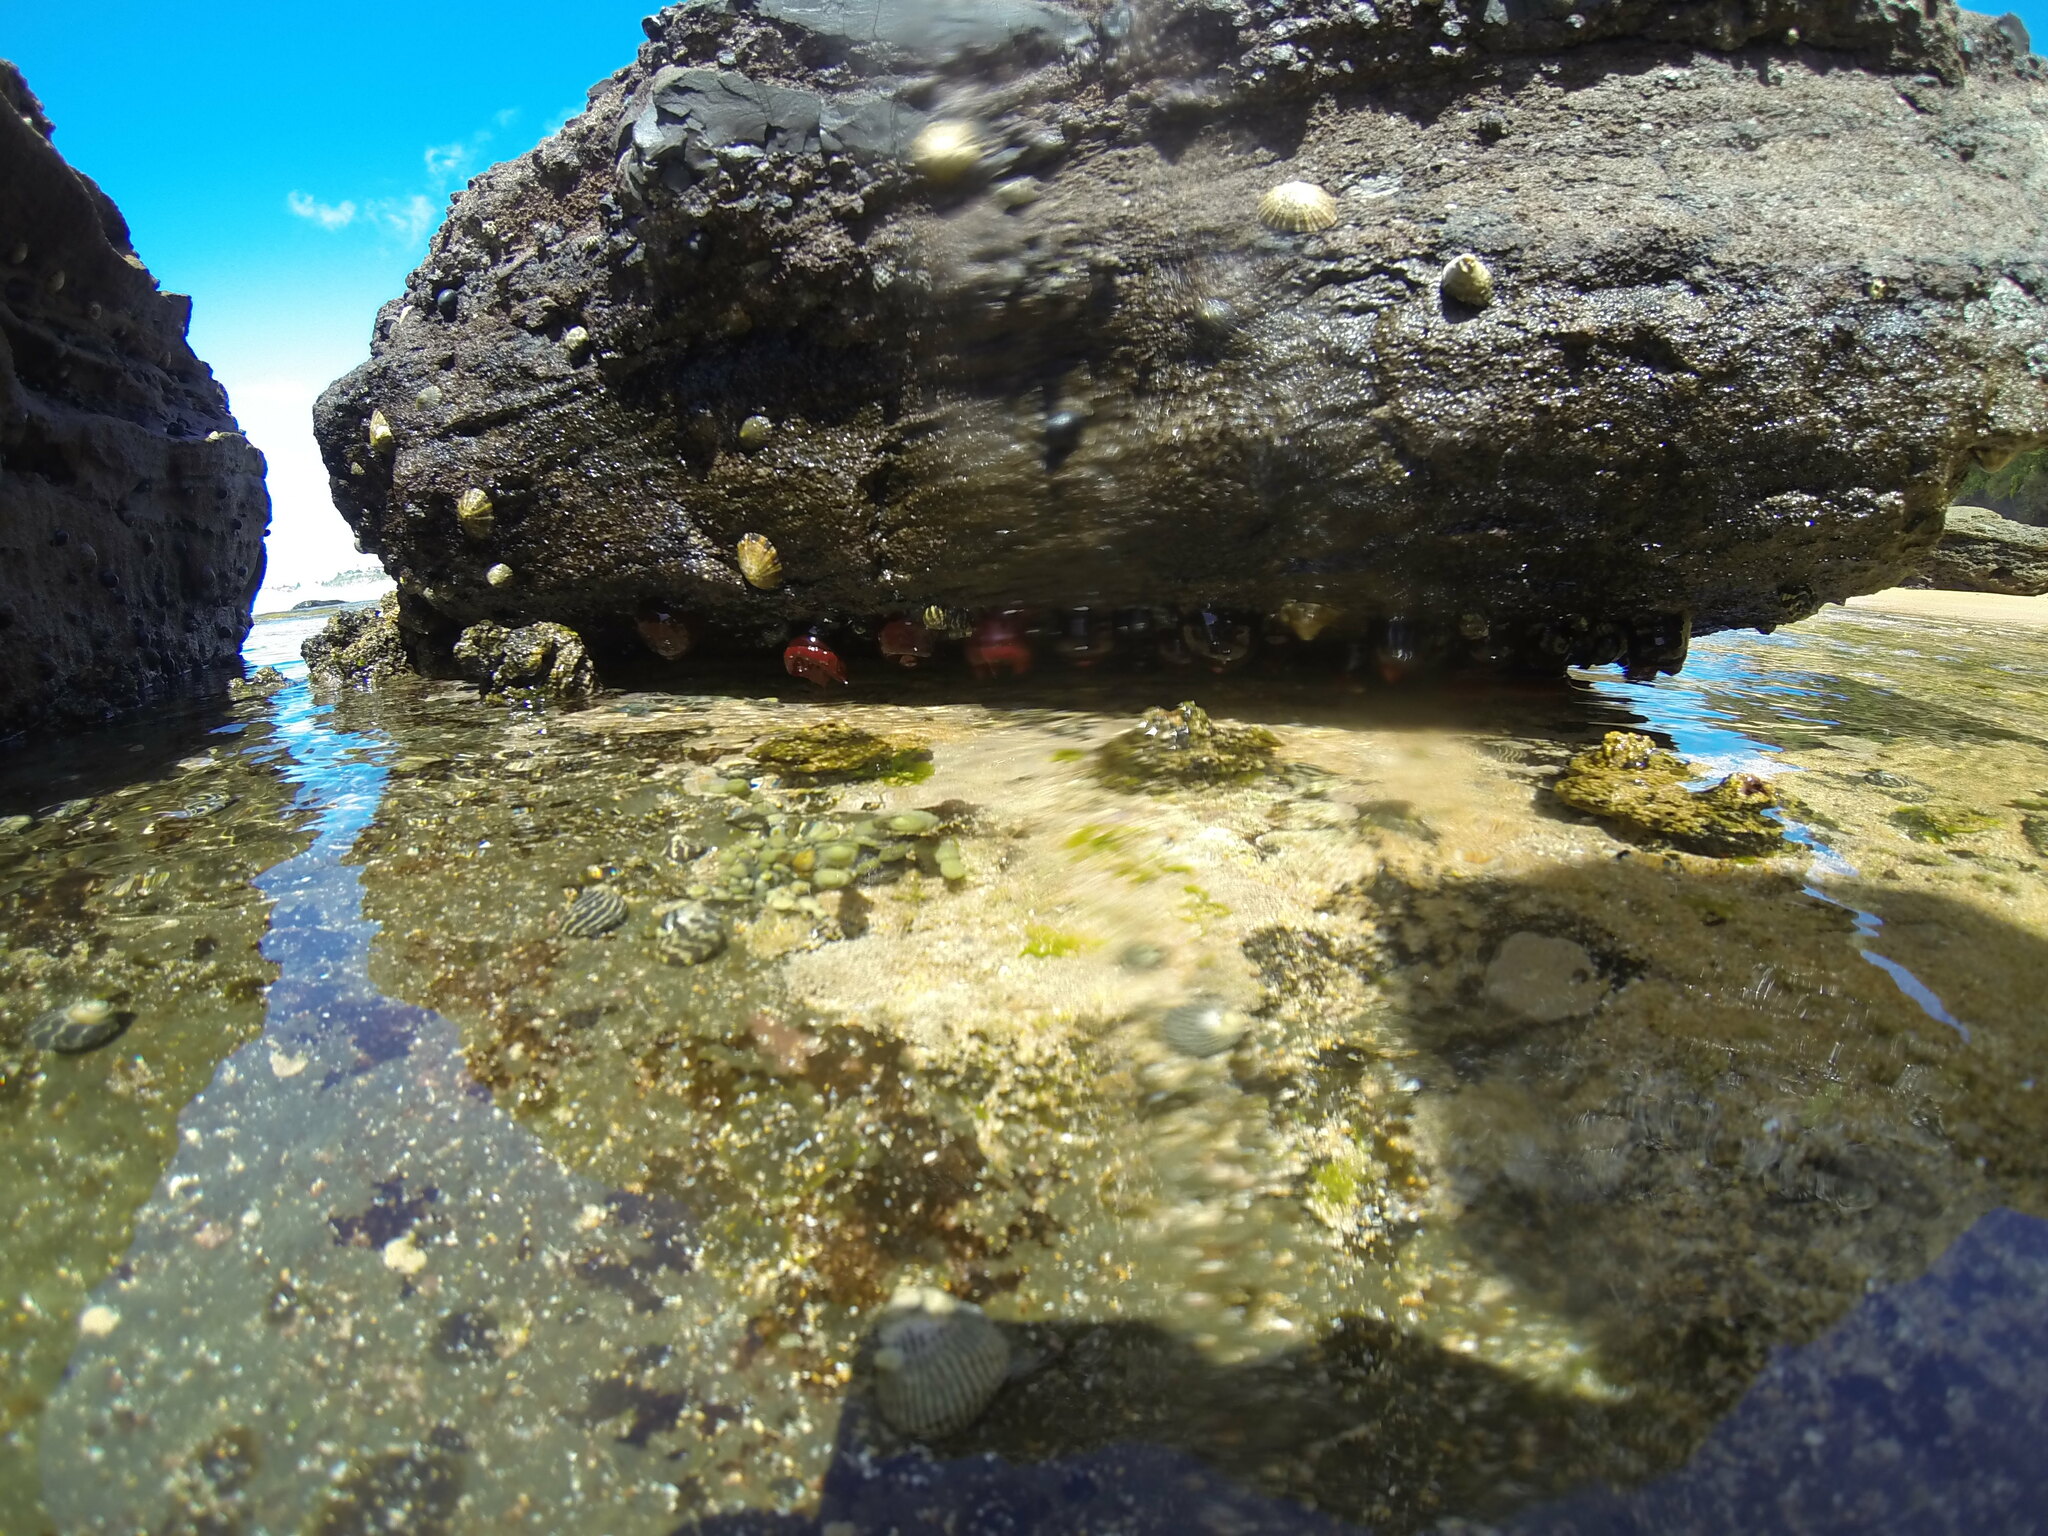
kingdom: Animalia
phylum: Mollusca
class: Gastropoda
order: Trochida
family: Trochidae
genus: Austrocochlea
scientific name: Austrocochlea porcata
